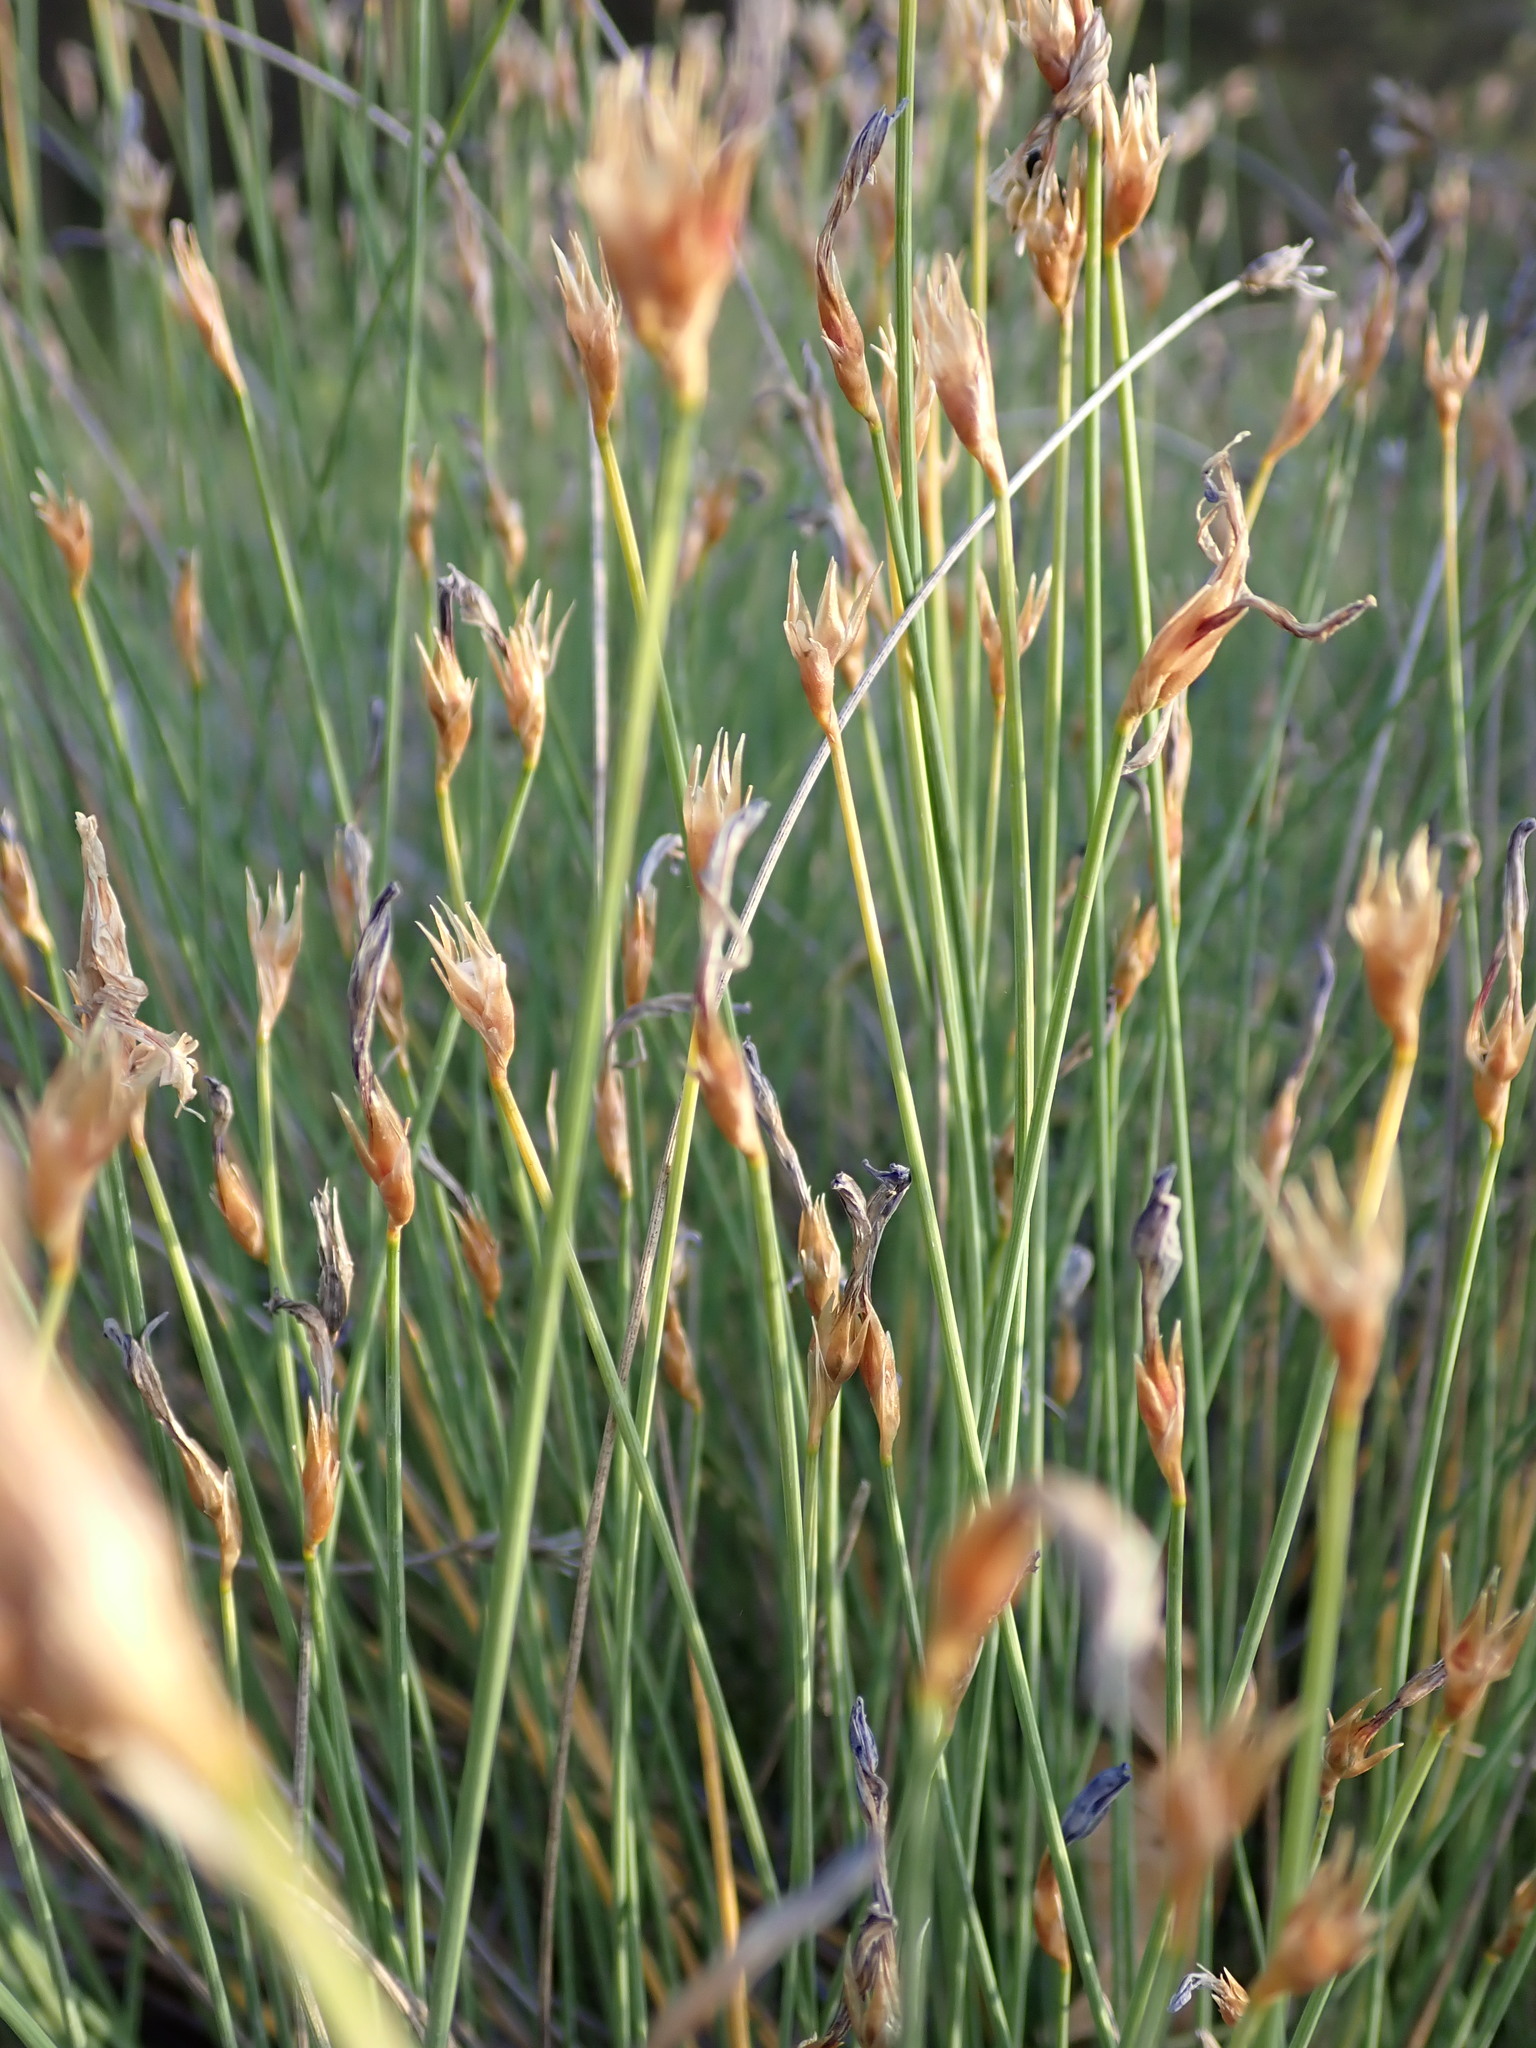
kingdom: Plantae
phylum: Tracheophyta
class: Liliopsida
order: Asparagales
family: Asparagaceae
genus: Aphyllanthes
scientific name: Aphyllanthes monspeliensis
